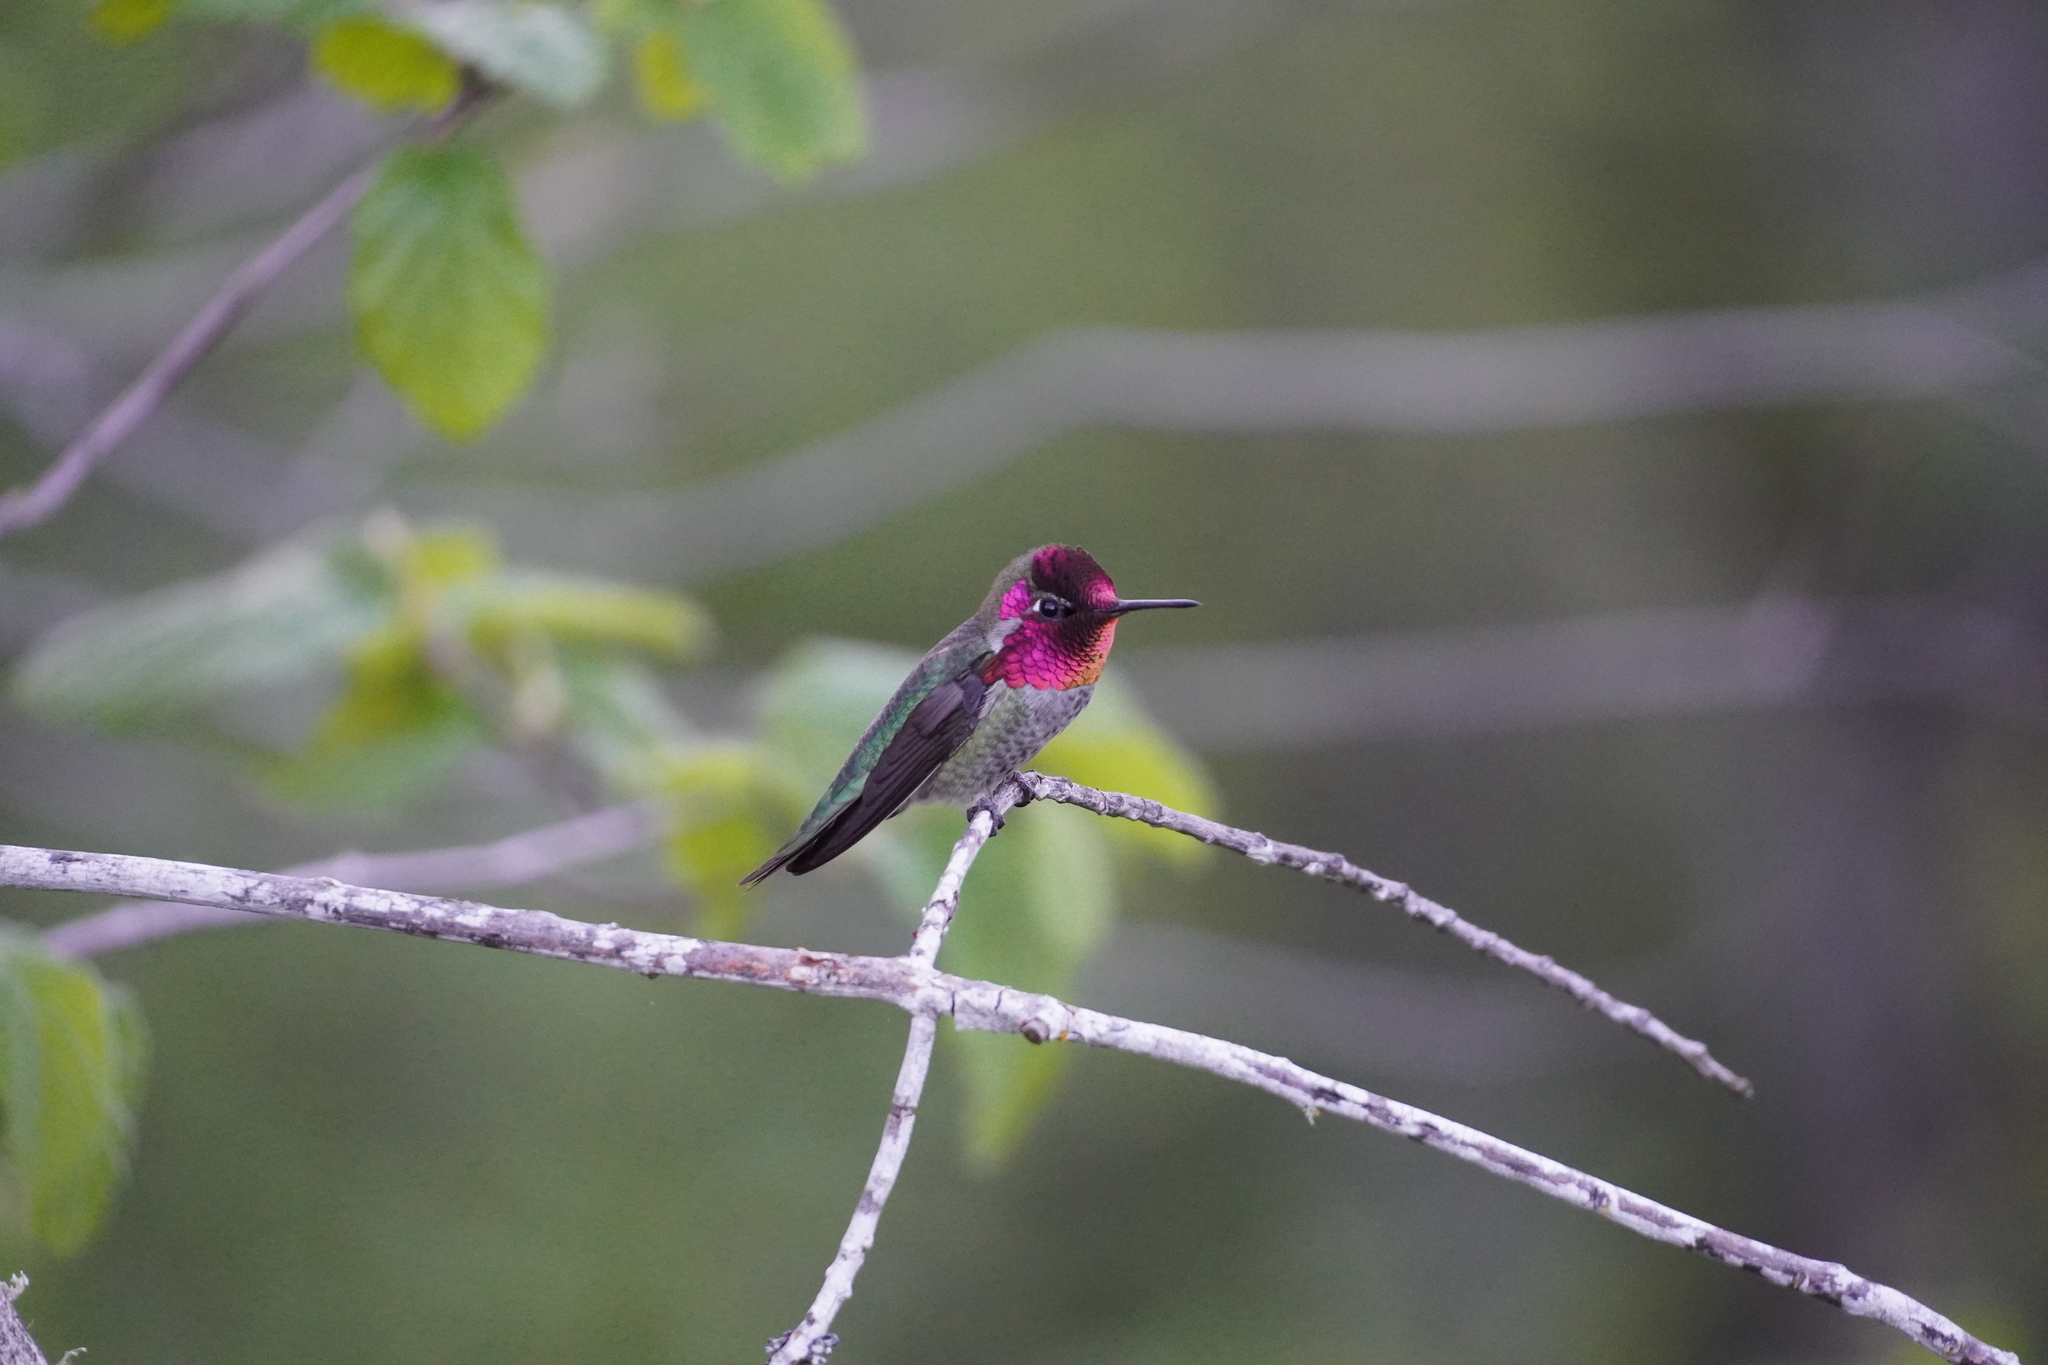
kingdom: Animalia
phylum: Chordata
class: Aves
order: Apodiformes
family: Trochilidae
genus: Calypte
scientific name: Calypte anna
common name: Anna's hummingbird
